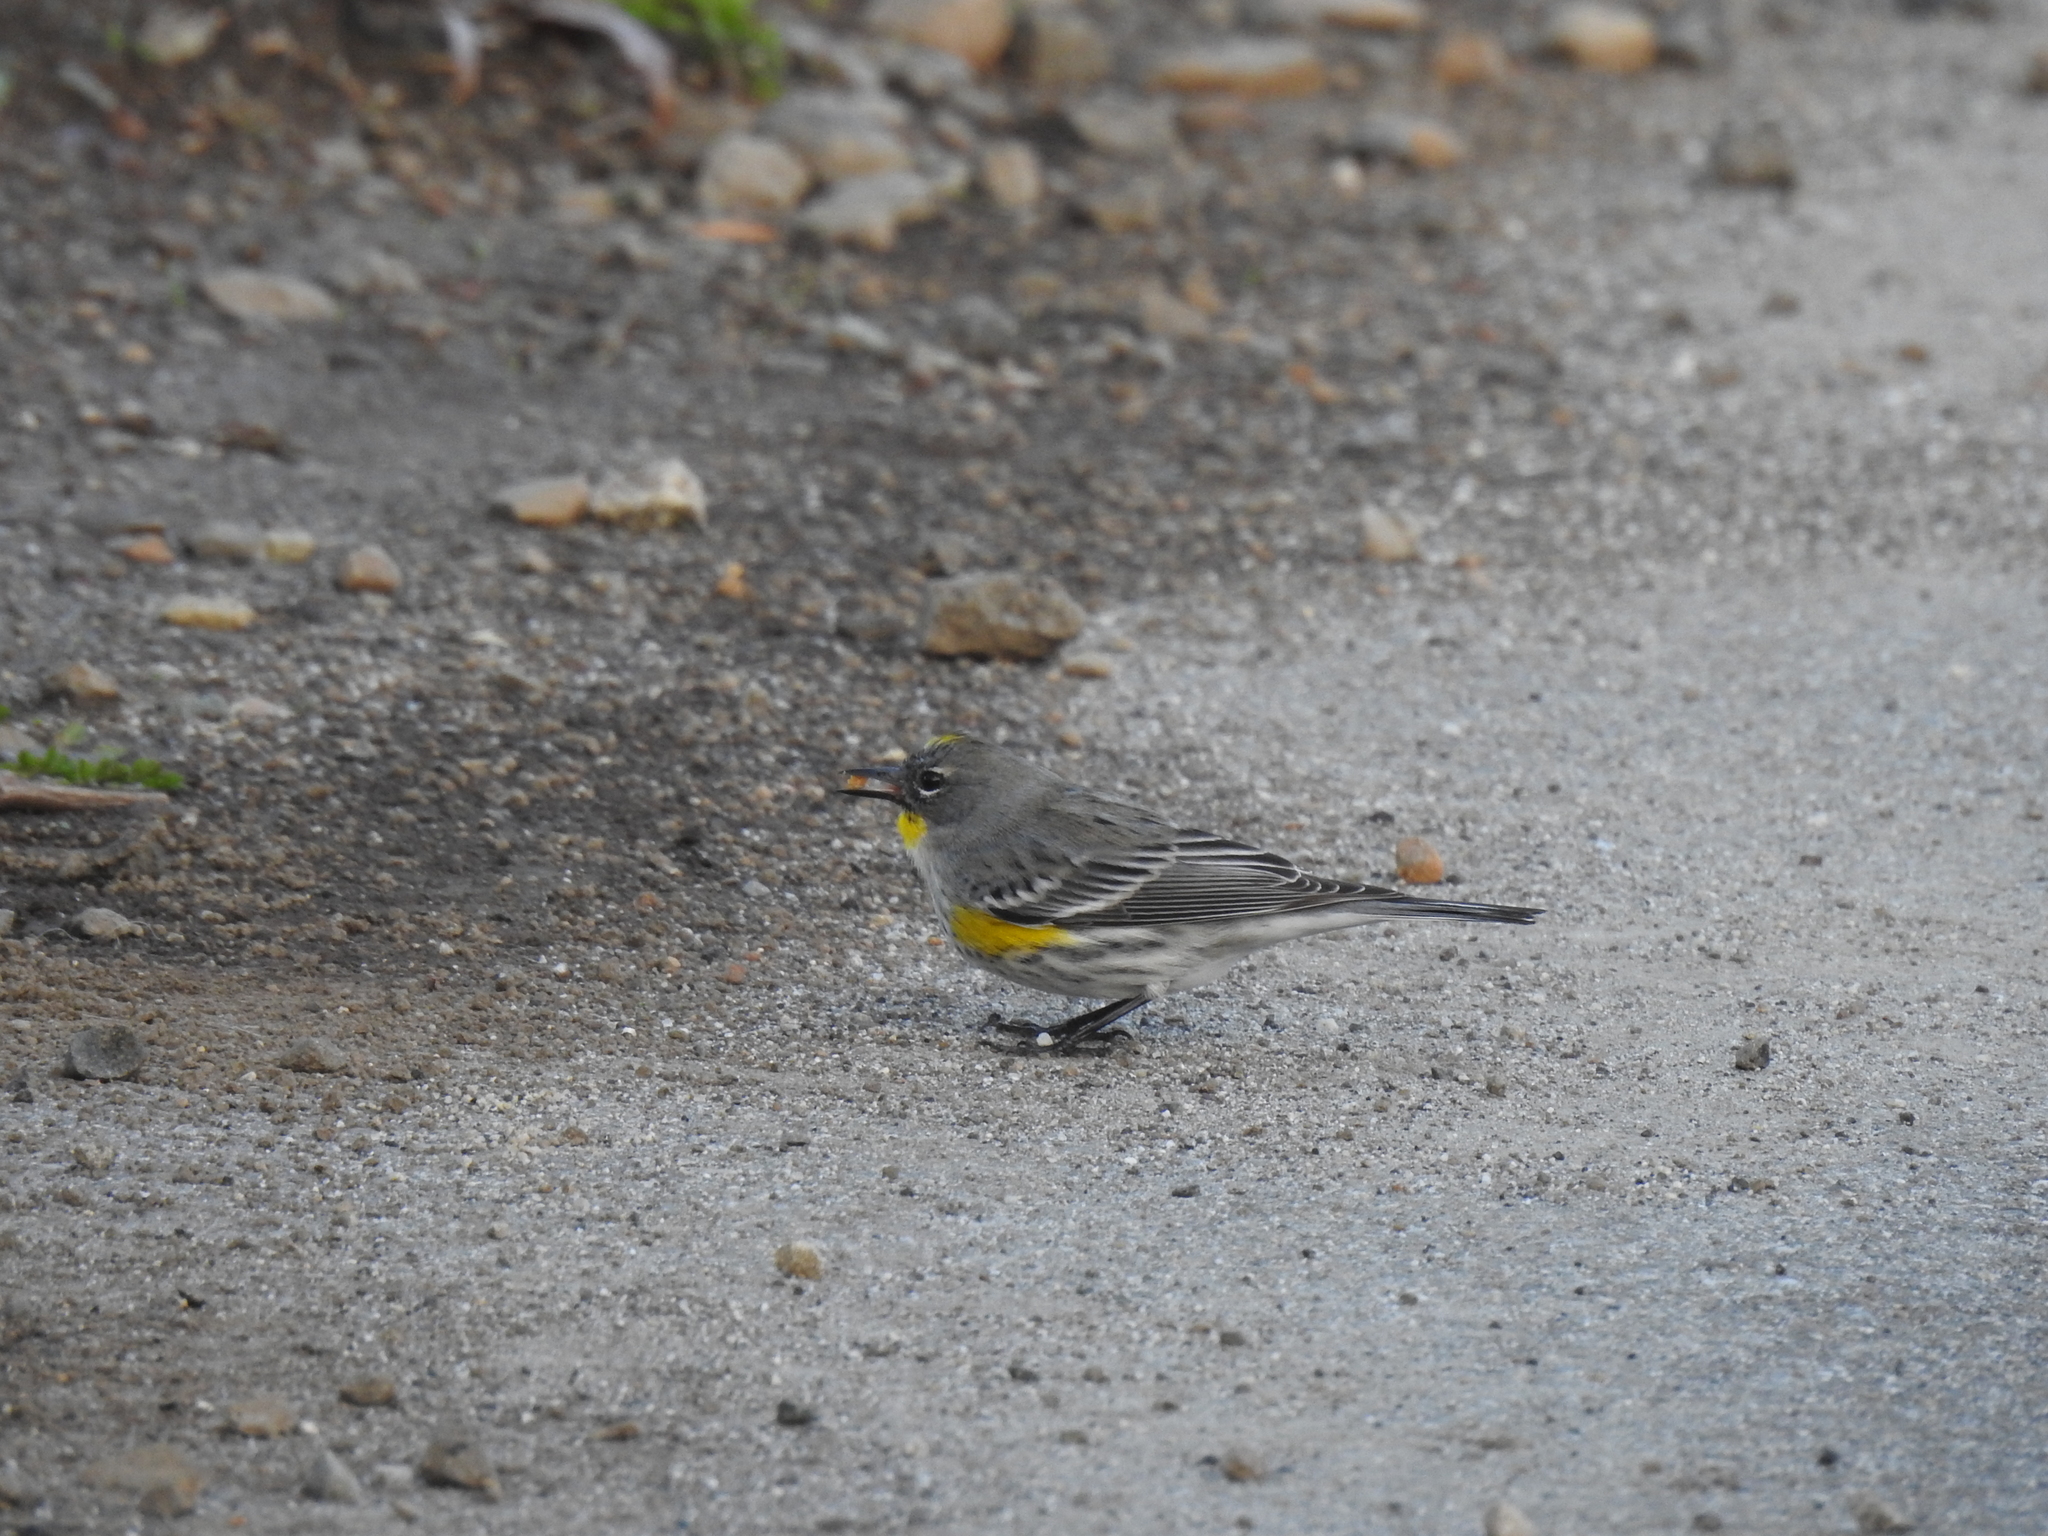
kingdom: Animalia
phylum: Chordata
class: Aves
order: Passeriformes
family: Parulidae
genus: Setophaga
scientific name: Setophaga coronata
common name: Myrtle warbler
